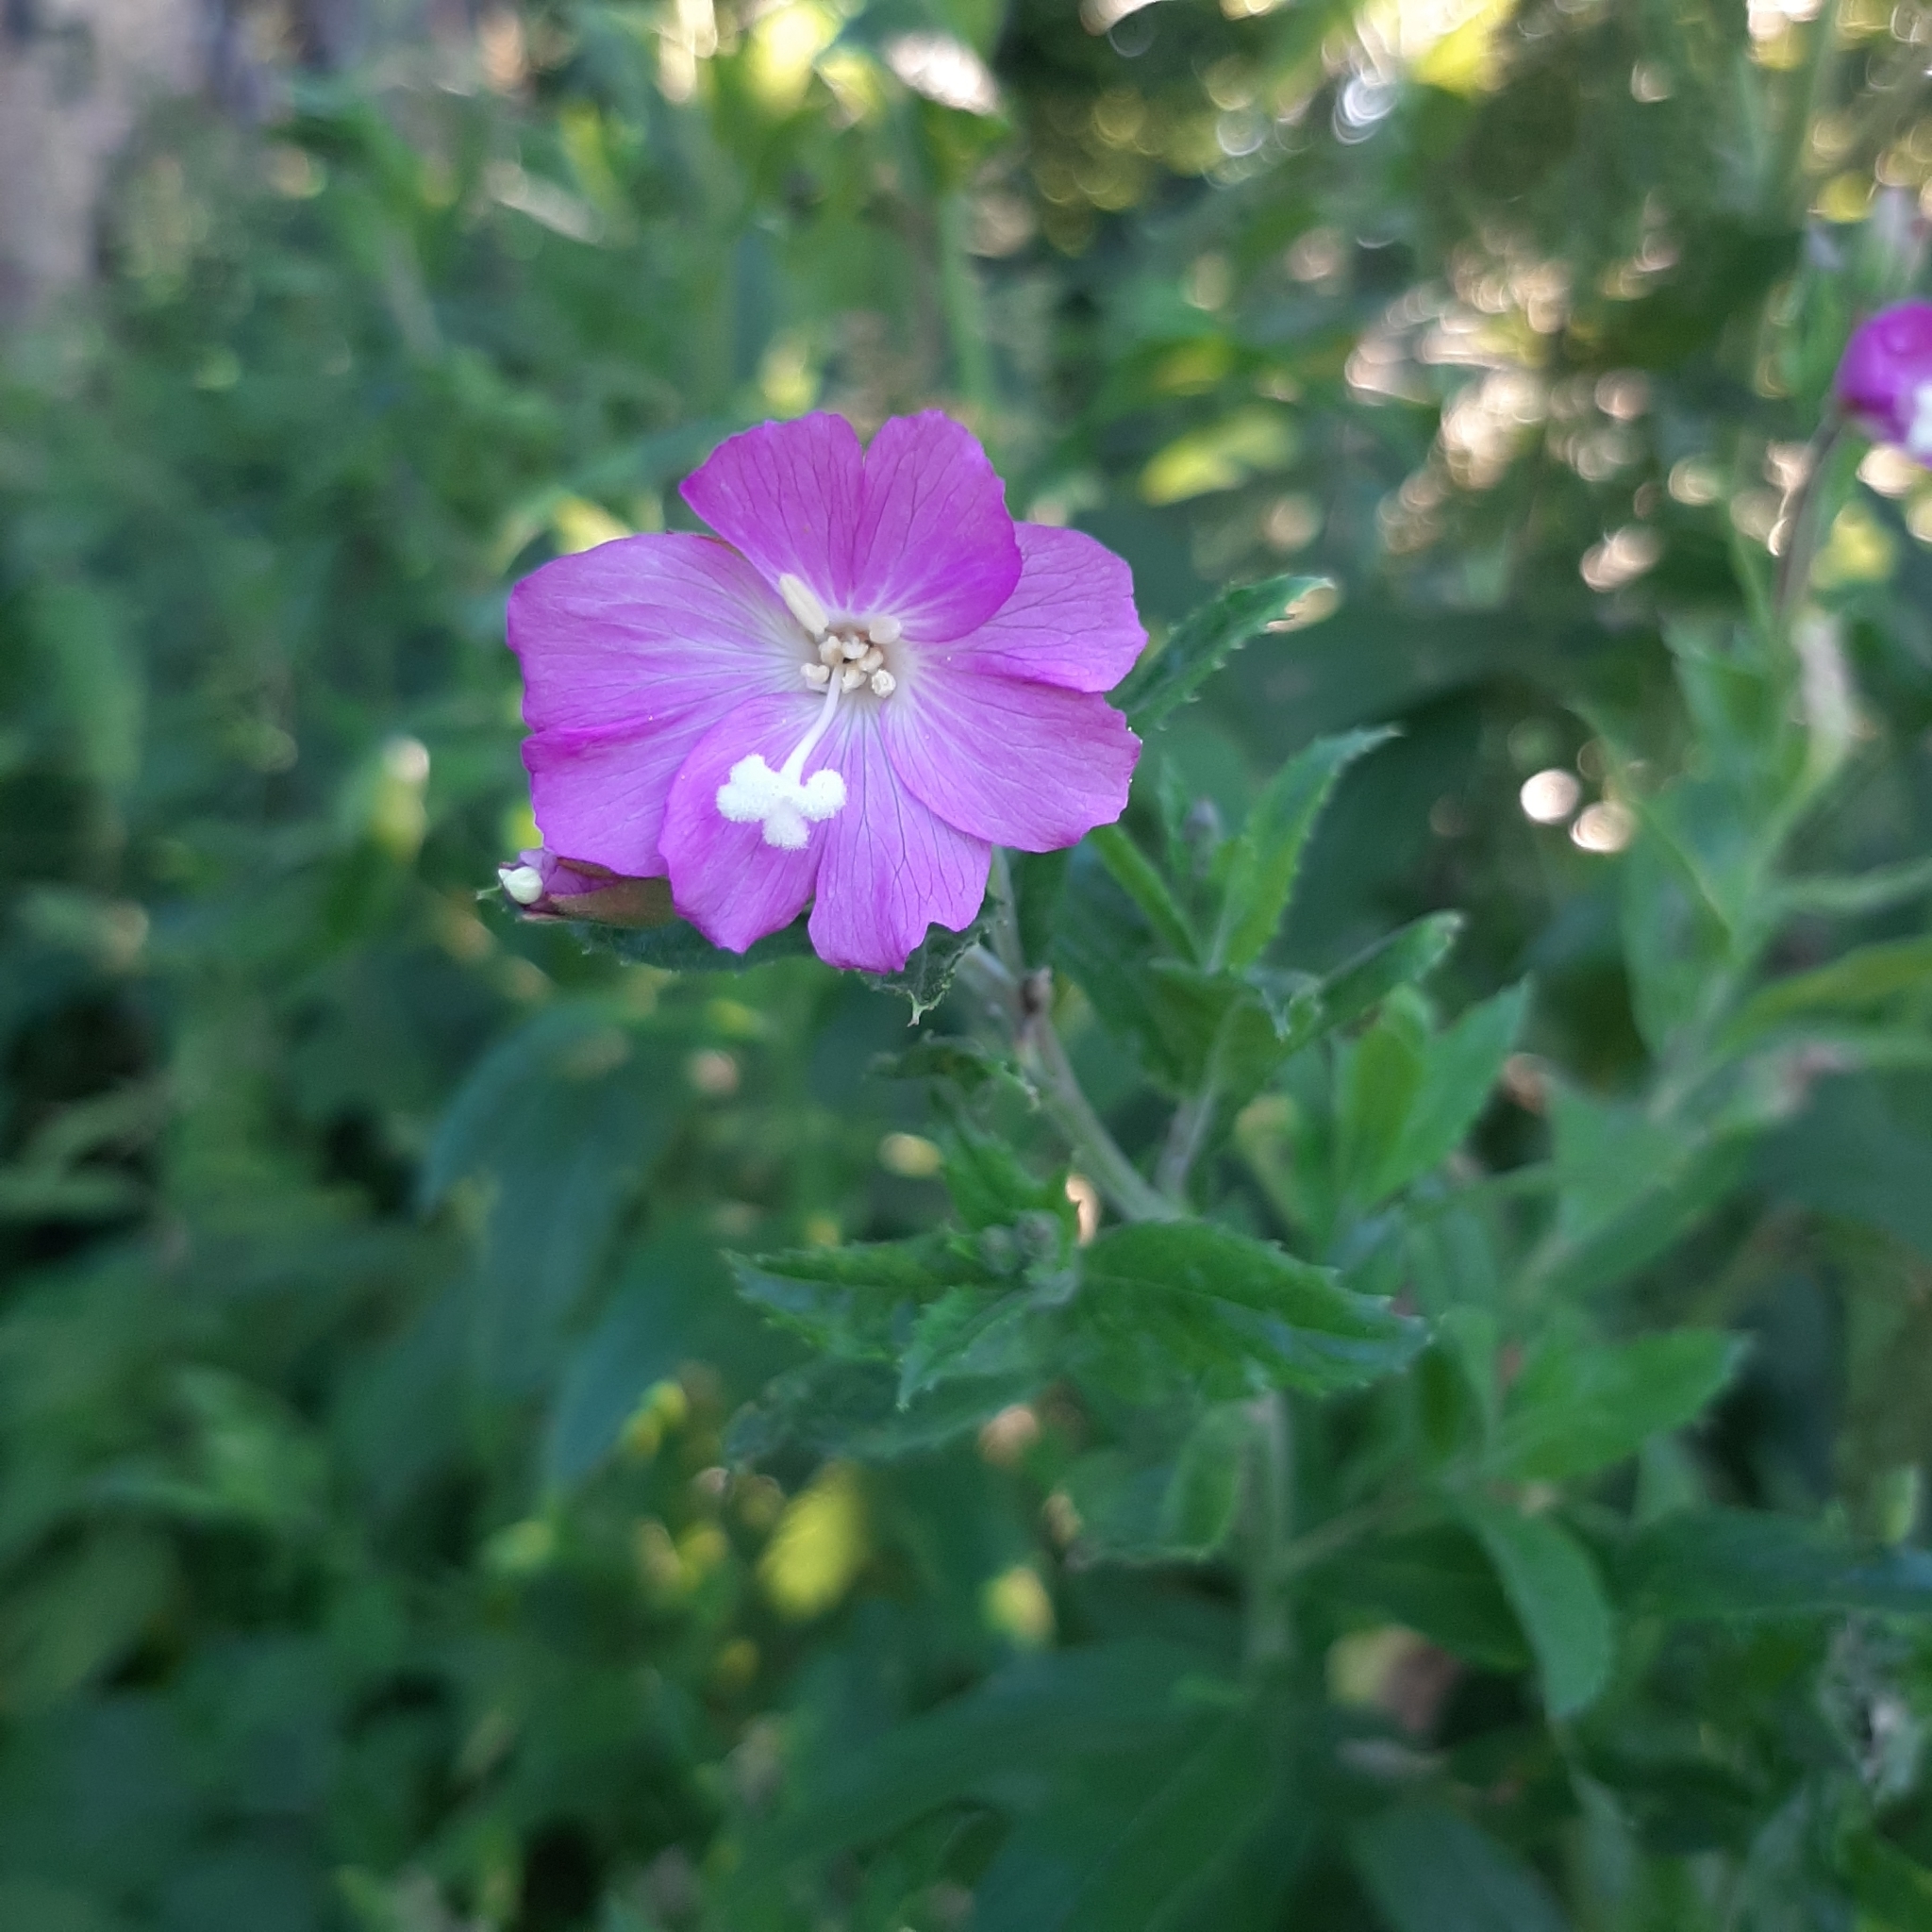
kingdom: Plantae
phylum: Tracheophyta
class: Magnoliopsida
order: Myrtales
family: Onagraceae
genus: Epilobium
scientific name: Epilobium hirsutum
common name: Great willowherb
